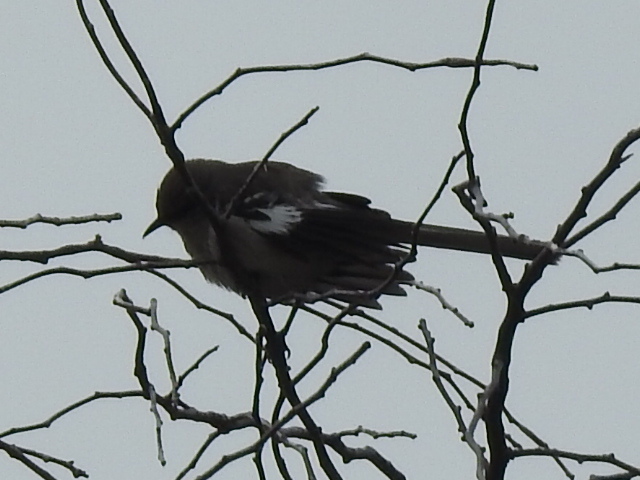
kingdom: Animalia
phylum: Chordata
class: Aves
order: Passeriformes
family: Mimidae
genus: Mimus
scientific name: Mimus polyglottos
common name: Northern mockingbird
